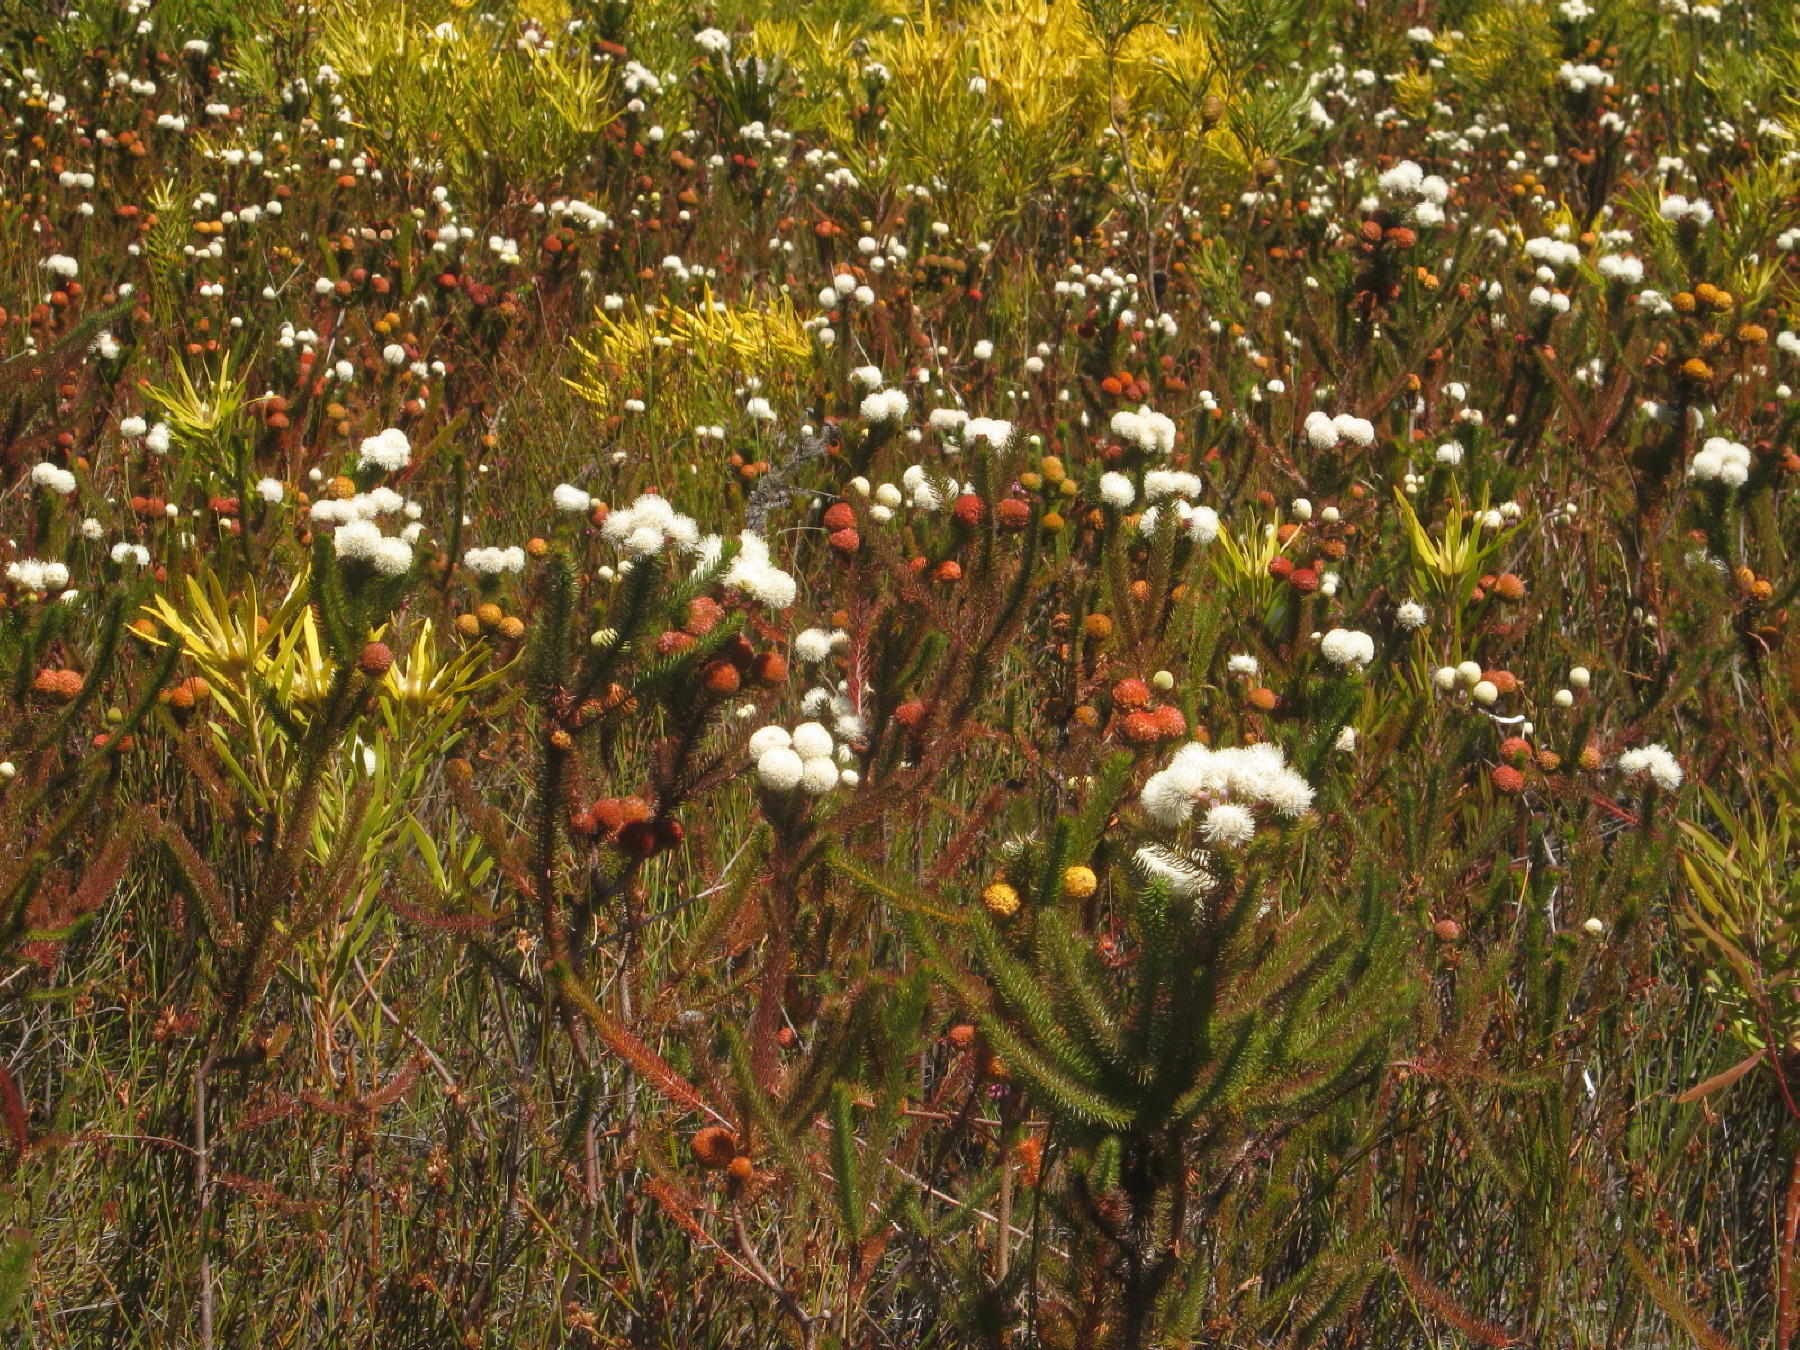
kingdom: Plantae
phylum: Tracheophyta
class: Magnoliopsida
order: Bruniales
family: Bruniaceae
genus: Berzelia
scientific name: Berzelia abrotanoides
